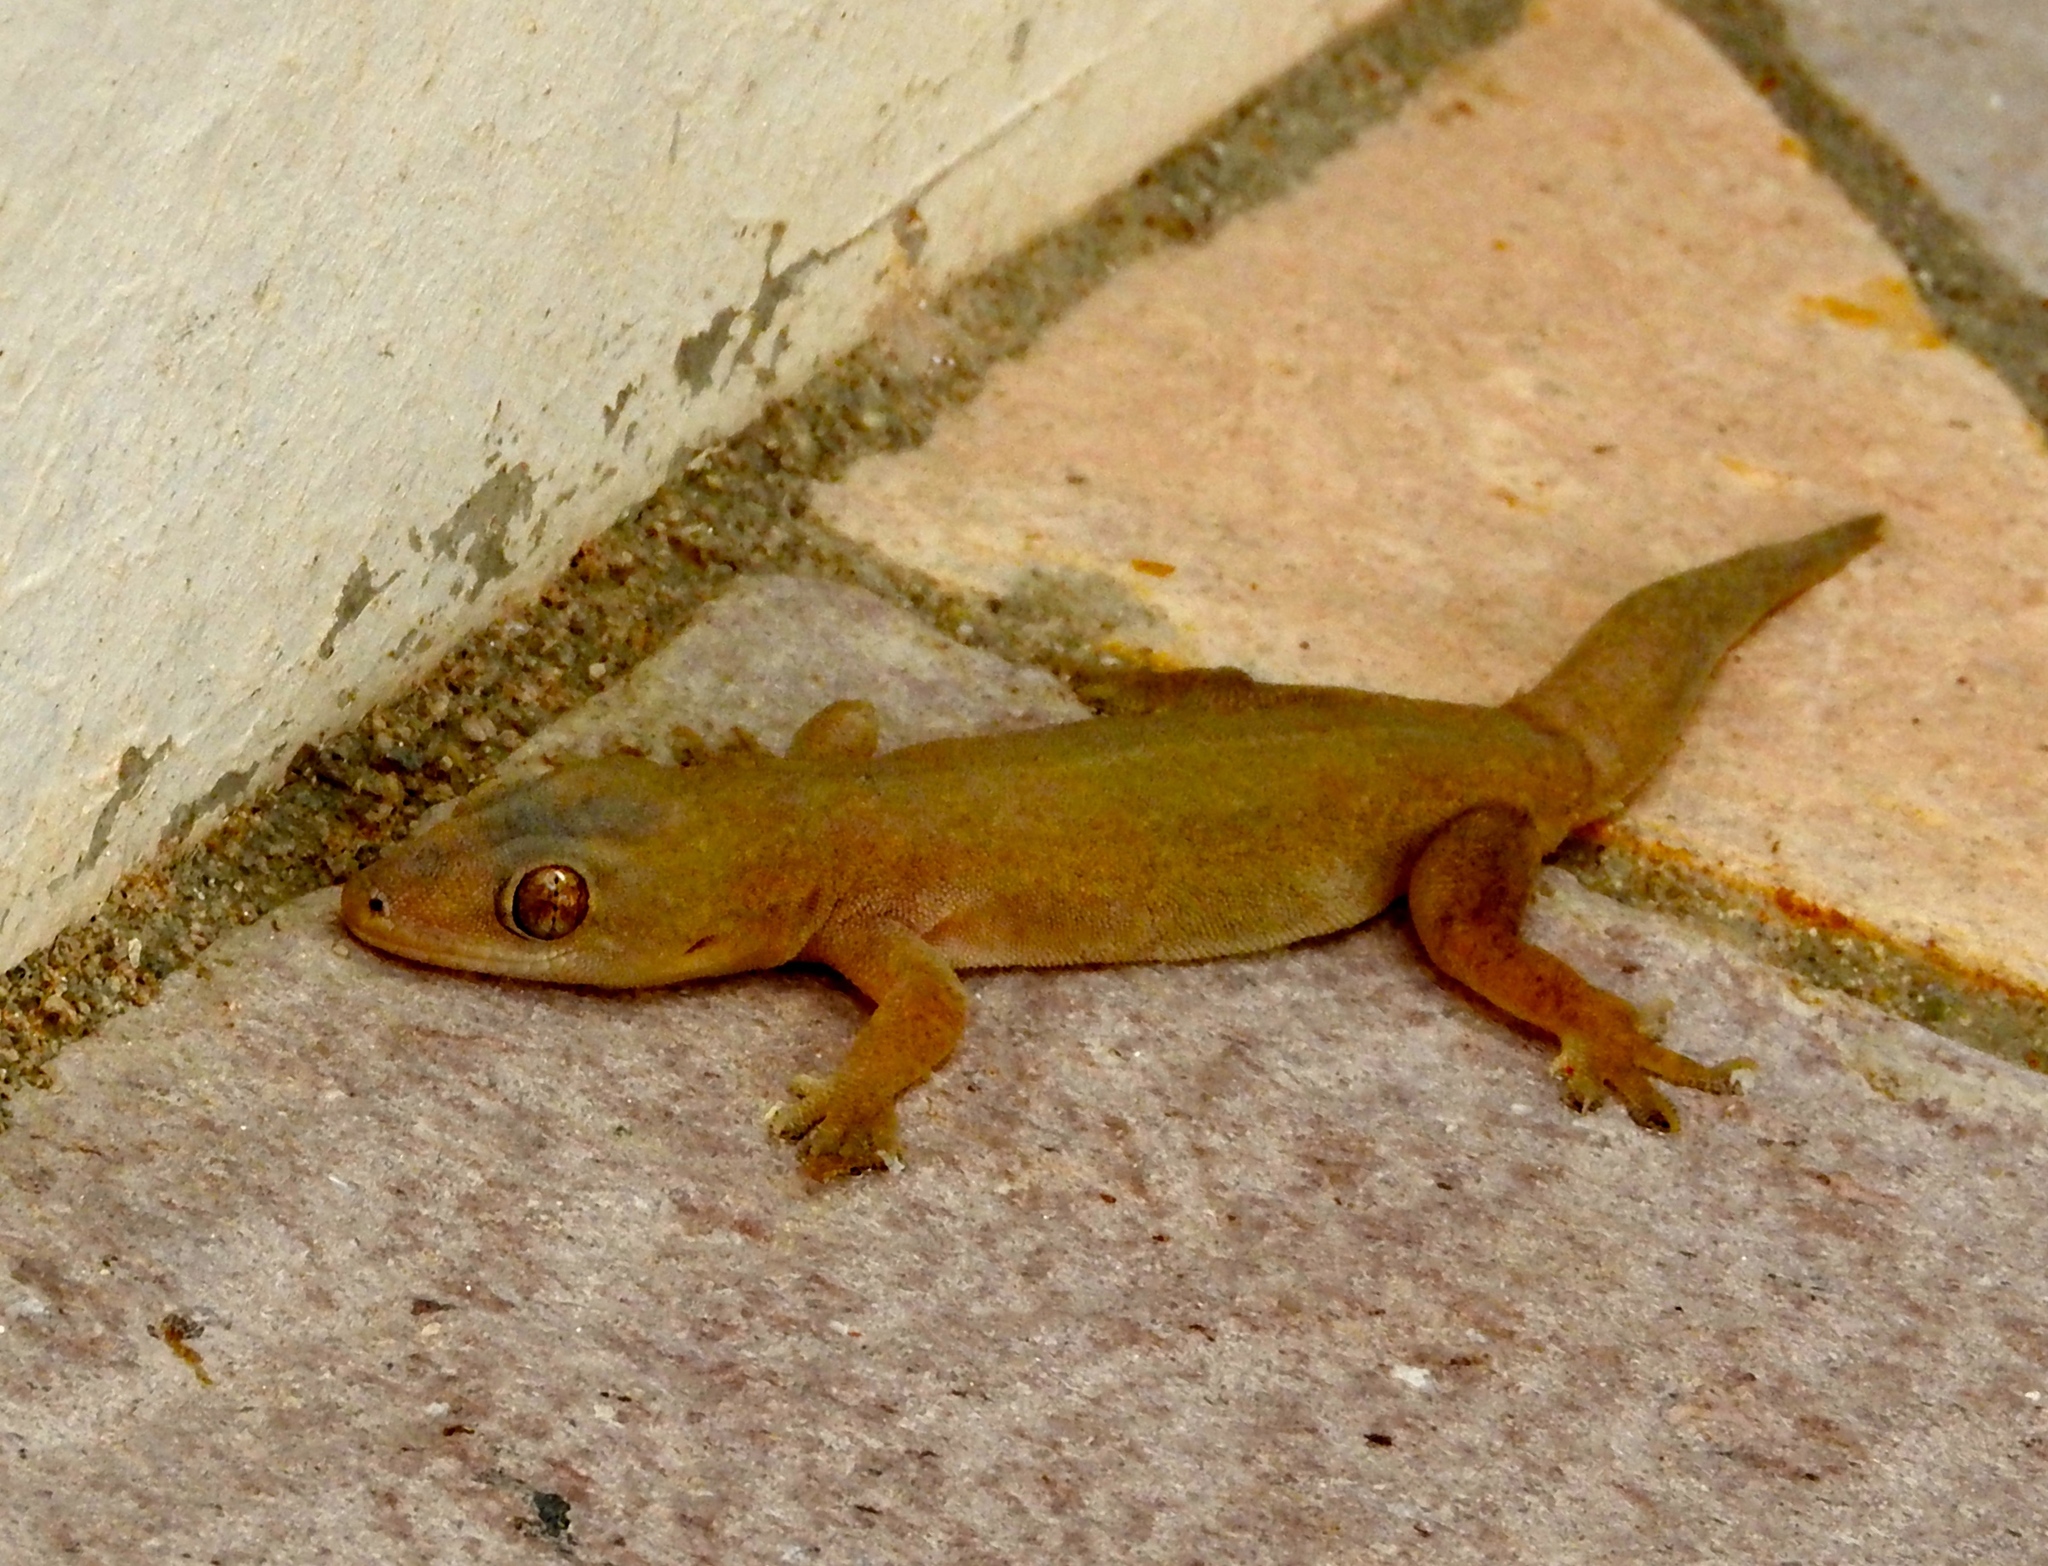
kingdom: Animalia
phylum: Chordata
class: Squamata
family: Gekkonidae
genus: Hemidactylus
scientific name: Hemidactylus frenatus
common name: Common house gecko
